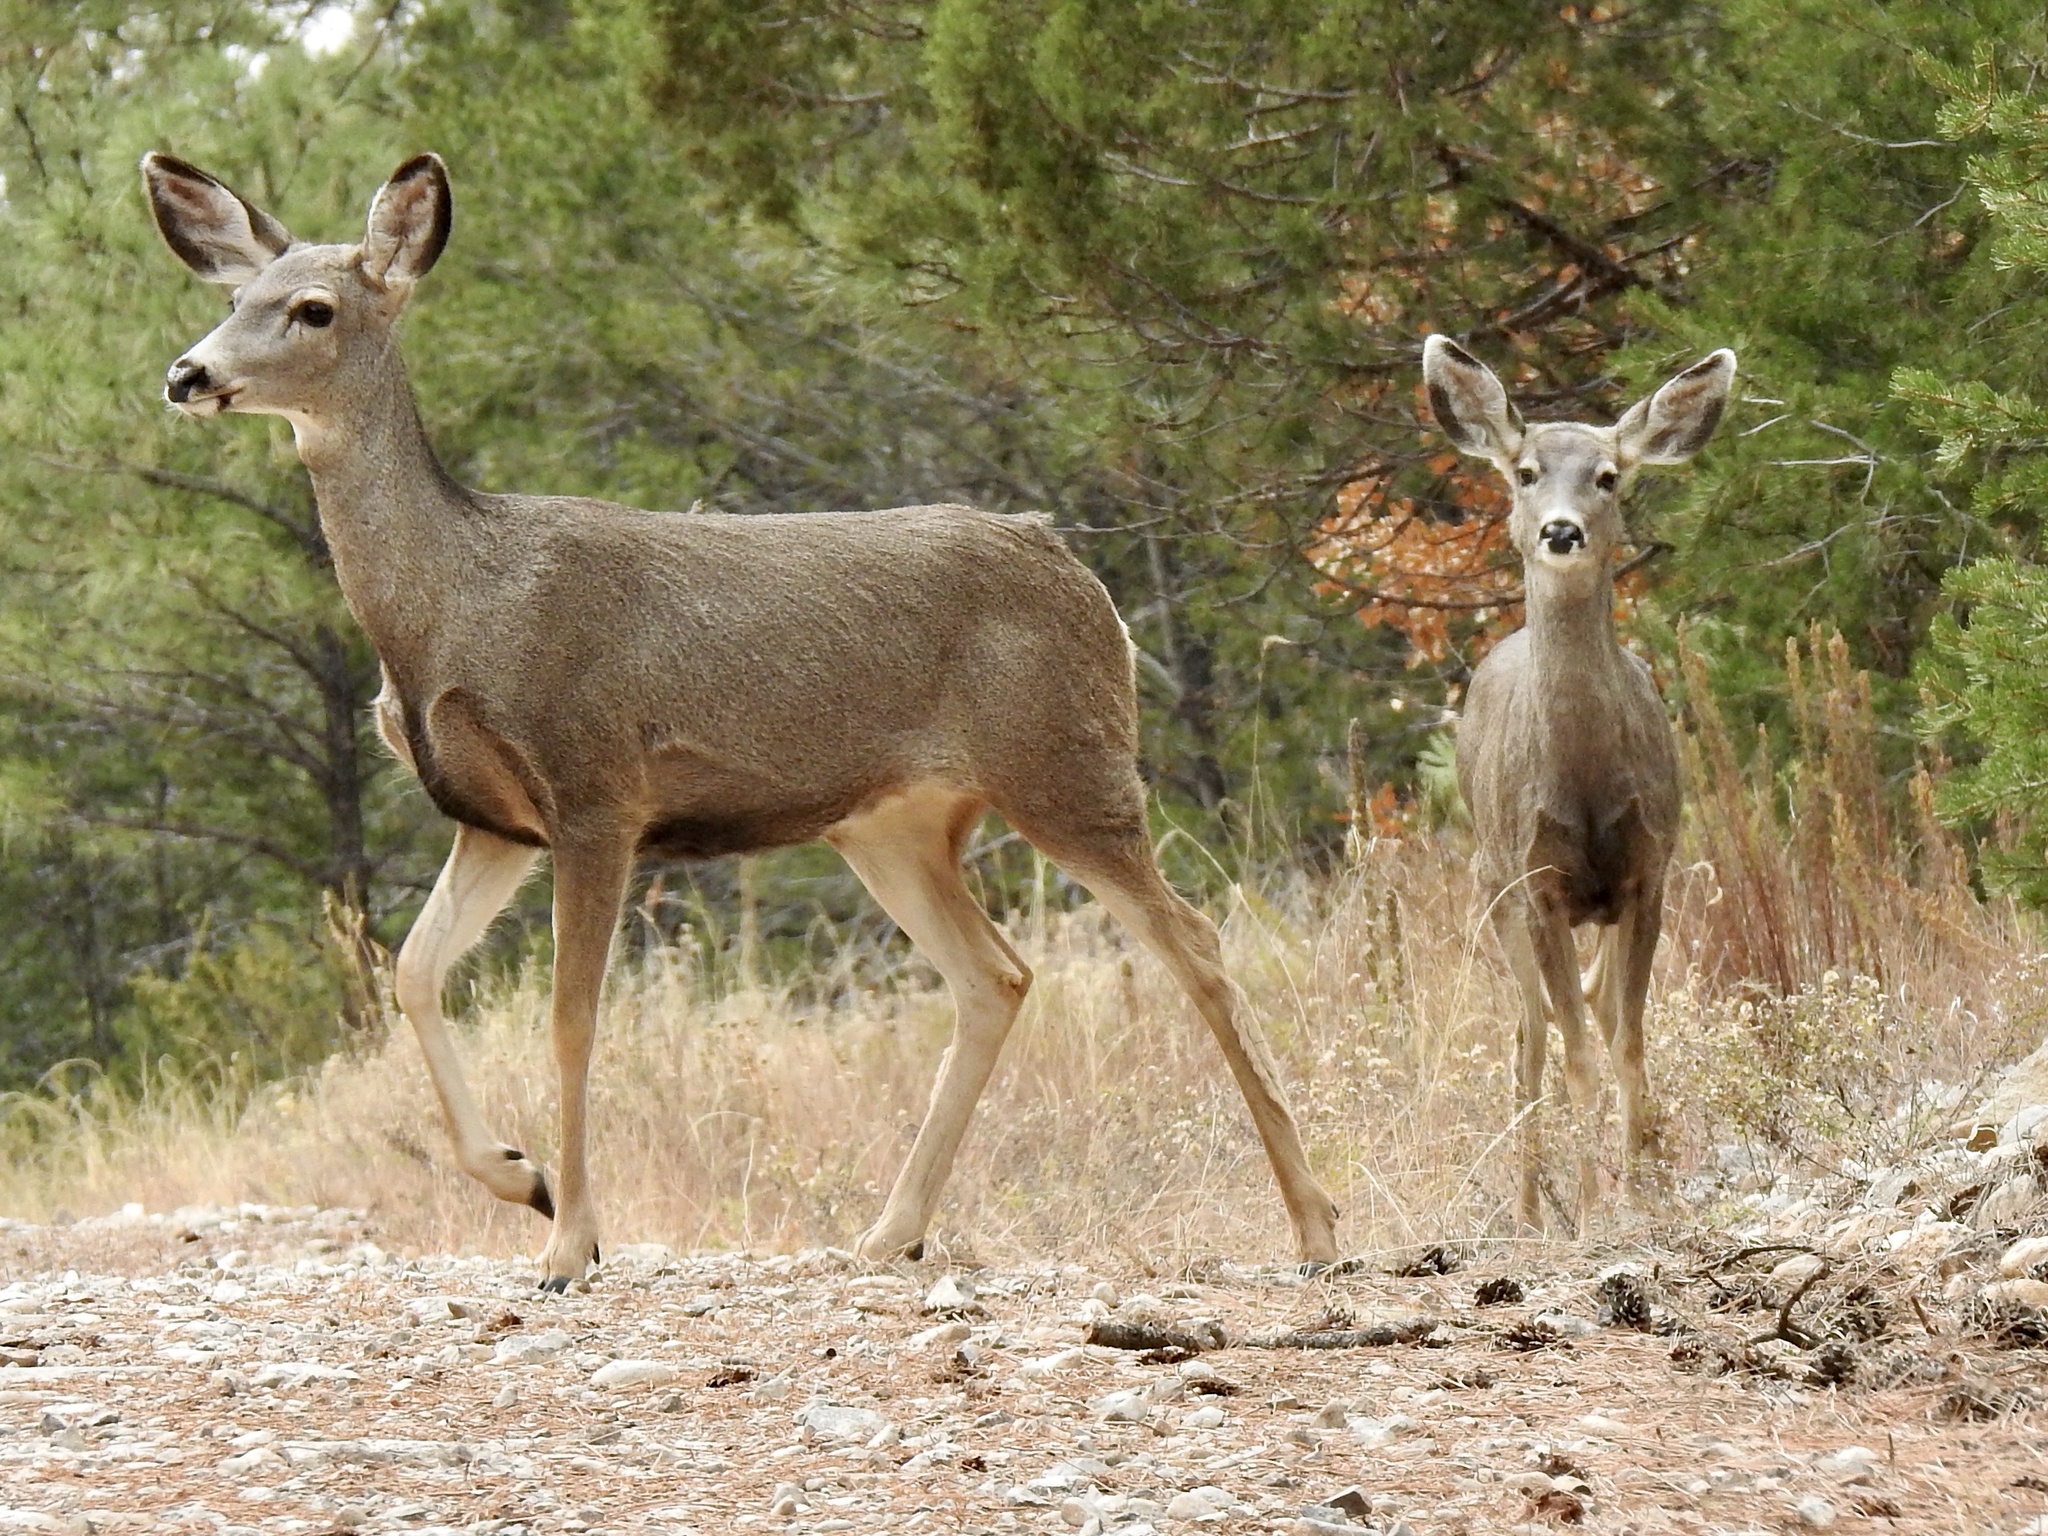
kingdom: Animalia
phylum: Chordata
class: Mammalia
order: Artiodactyla
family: Cervidae
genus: Odocoileus
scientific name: Odocoileus hemionus
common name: Mule deer
